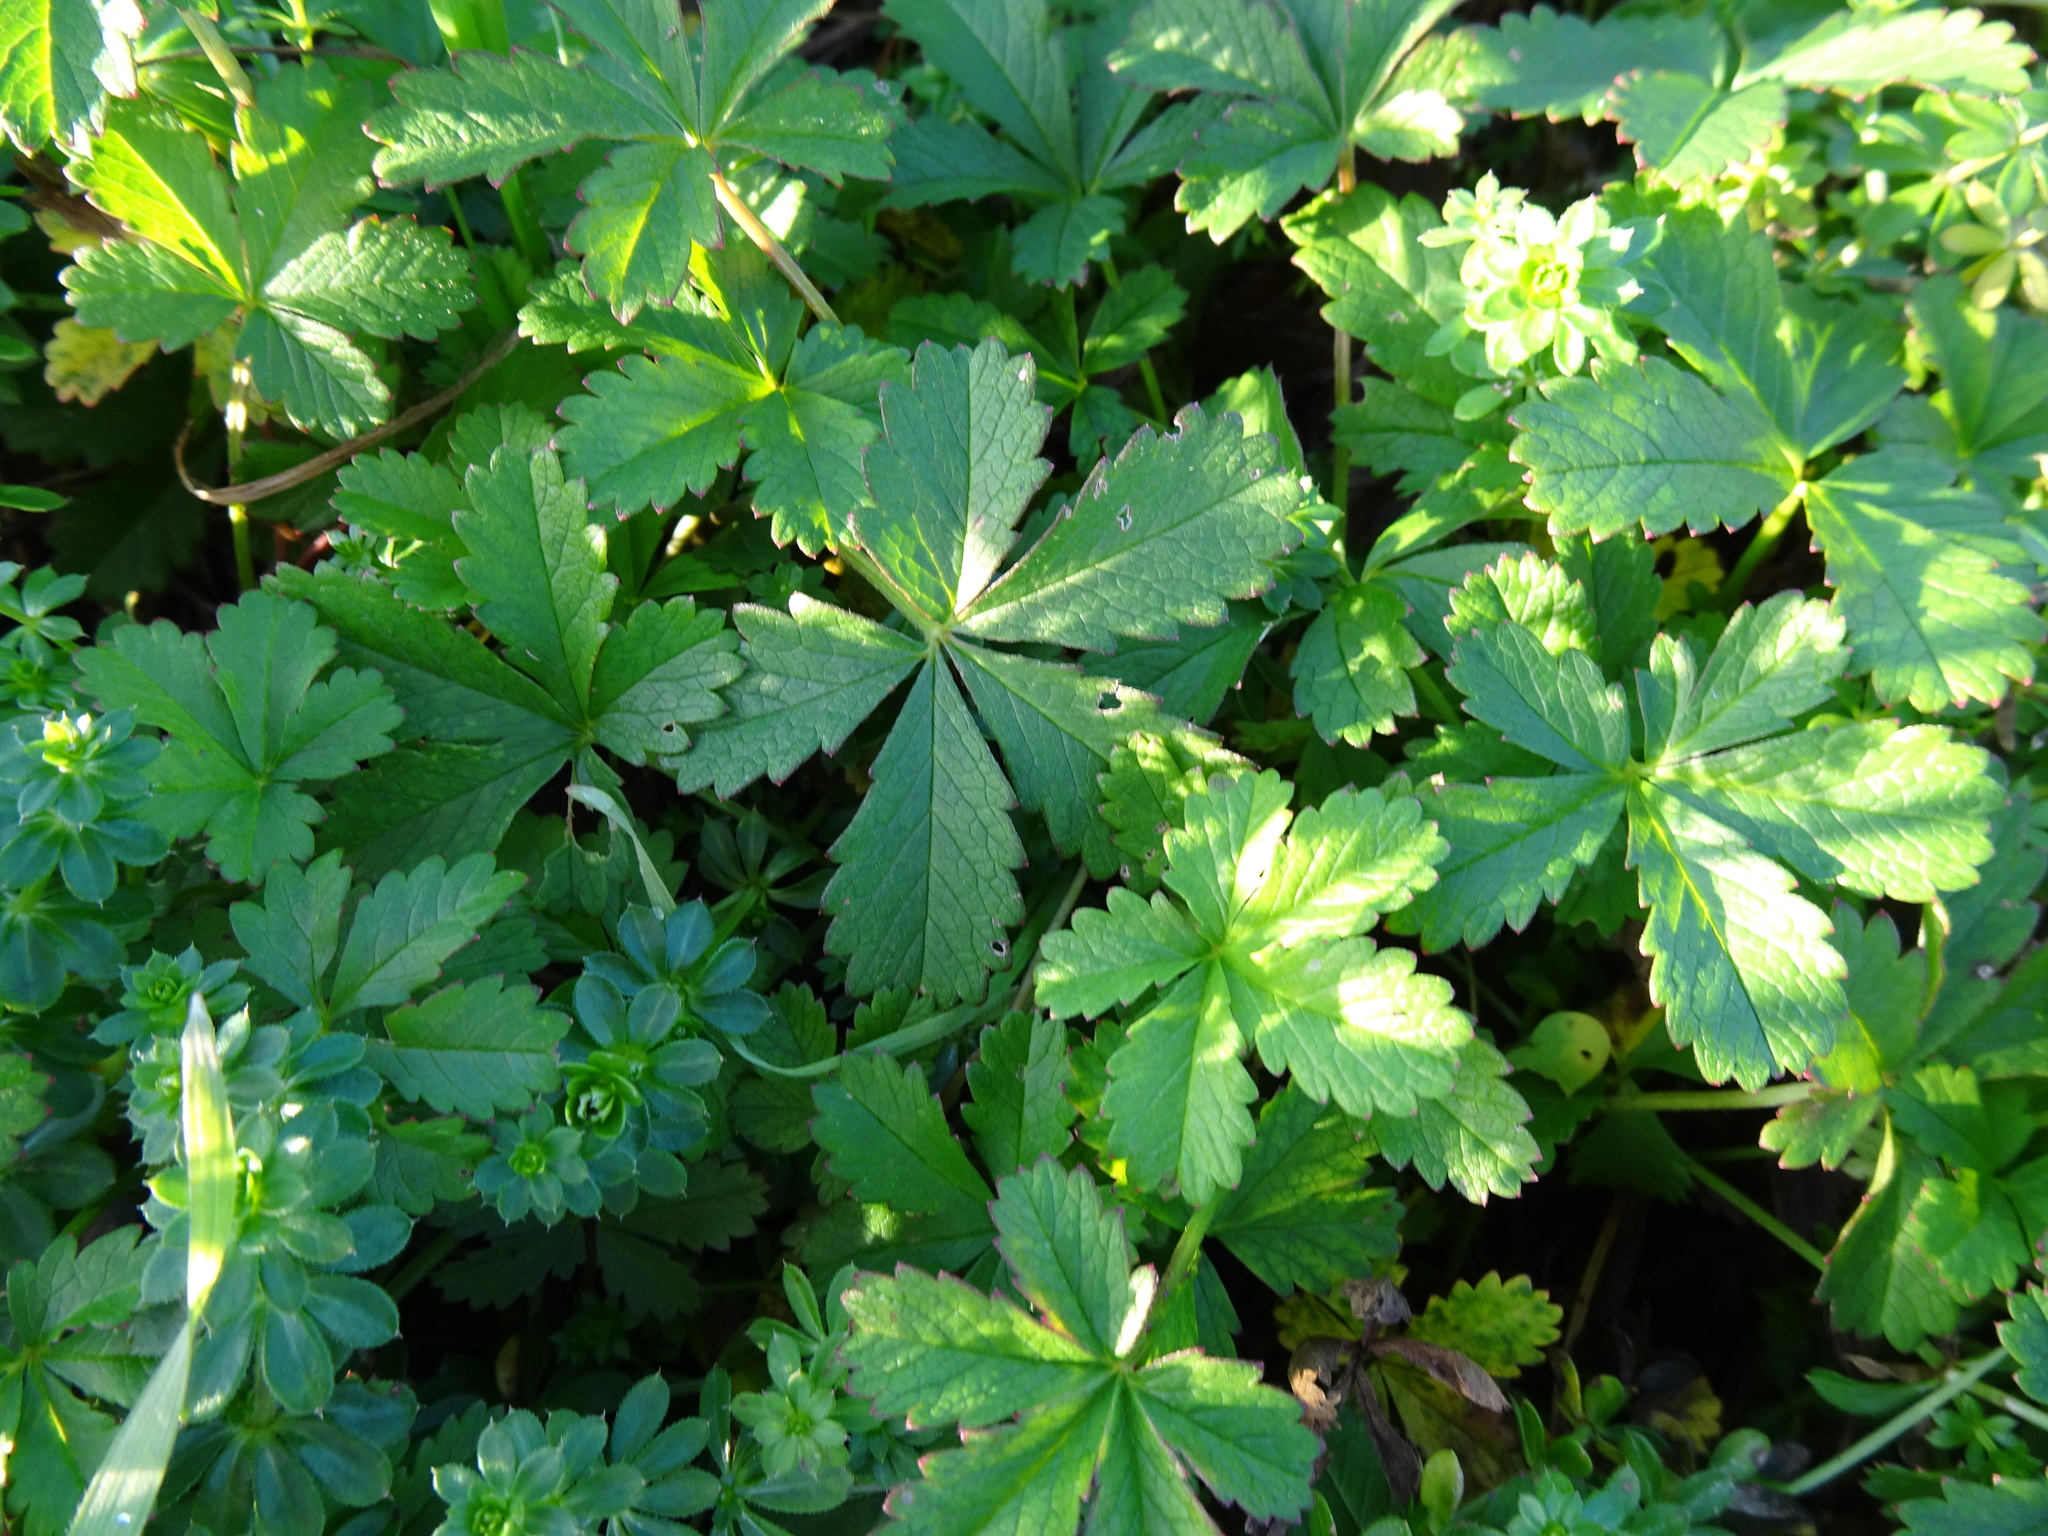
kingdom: Plantae
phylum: Tracheophyta
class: Magnoliopsida
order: Rosales
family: Rosaceae
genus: Potentilla
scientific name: Potentilla reptans
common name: Creeping cinquefoil
